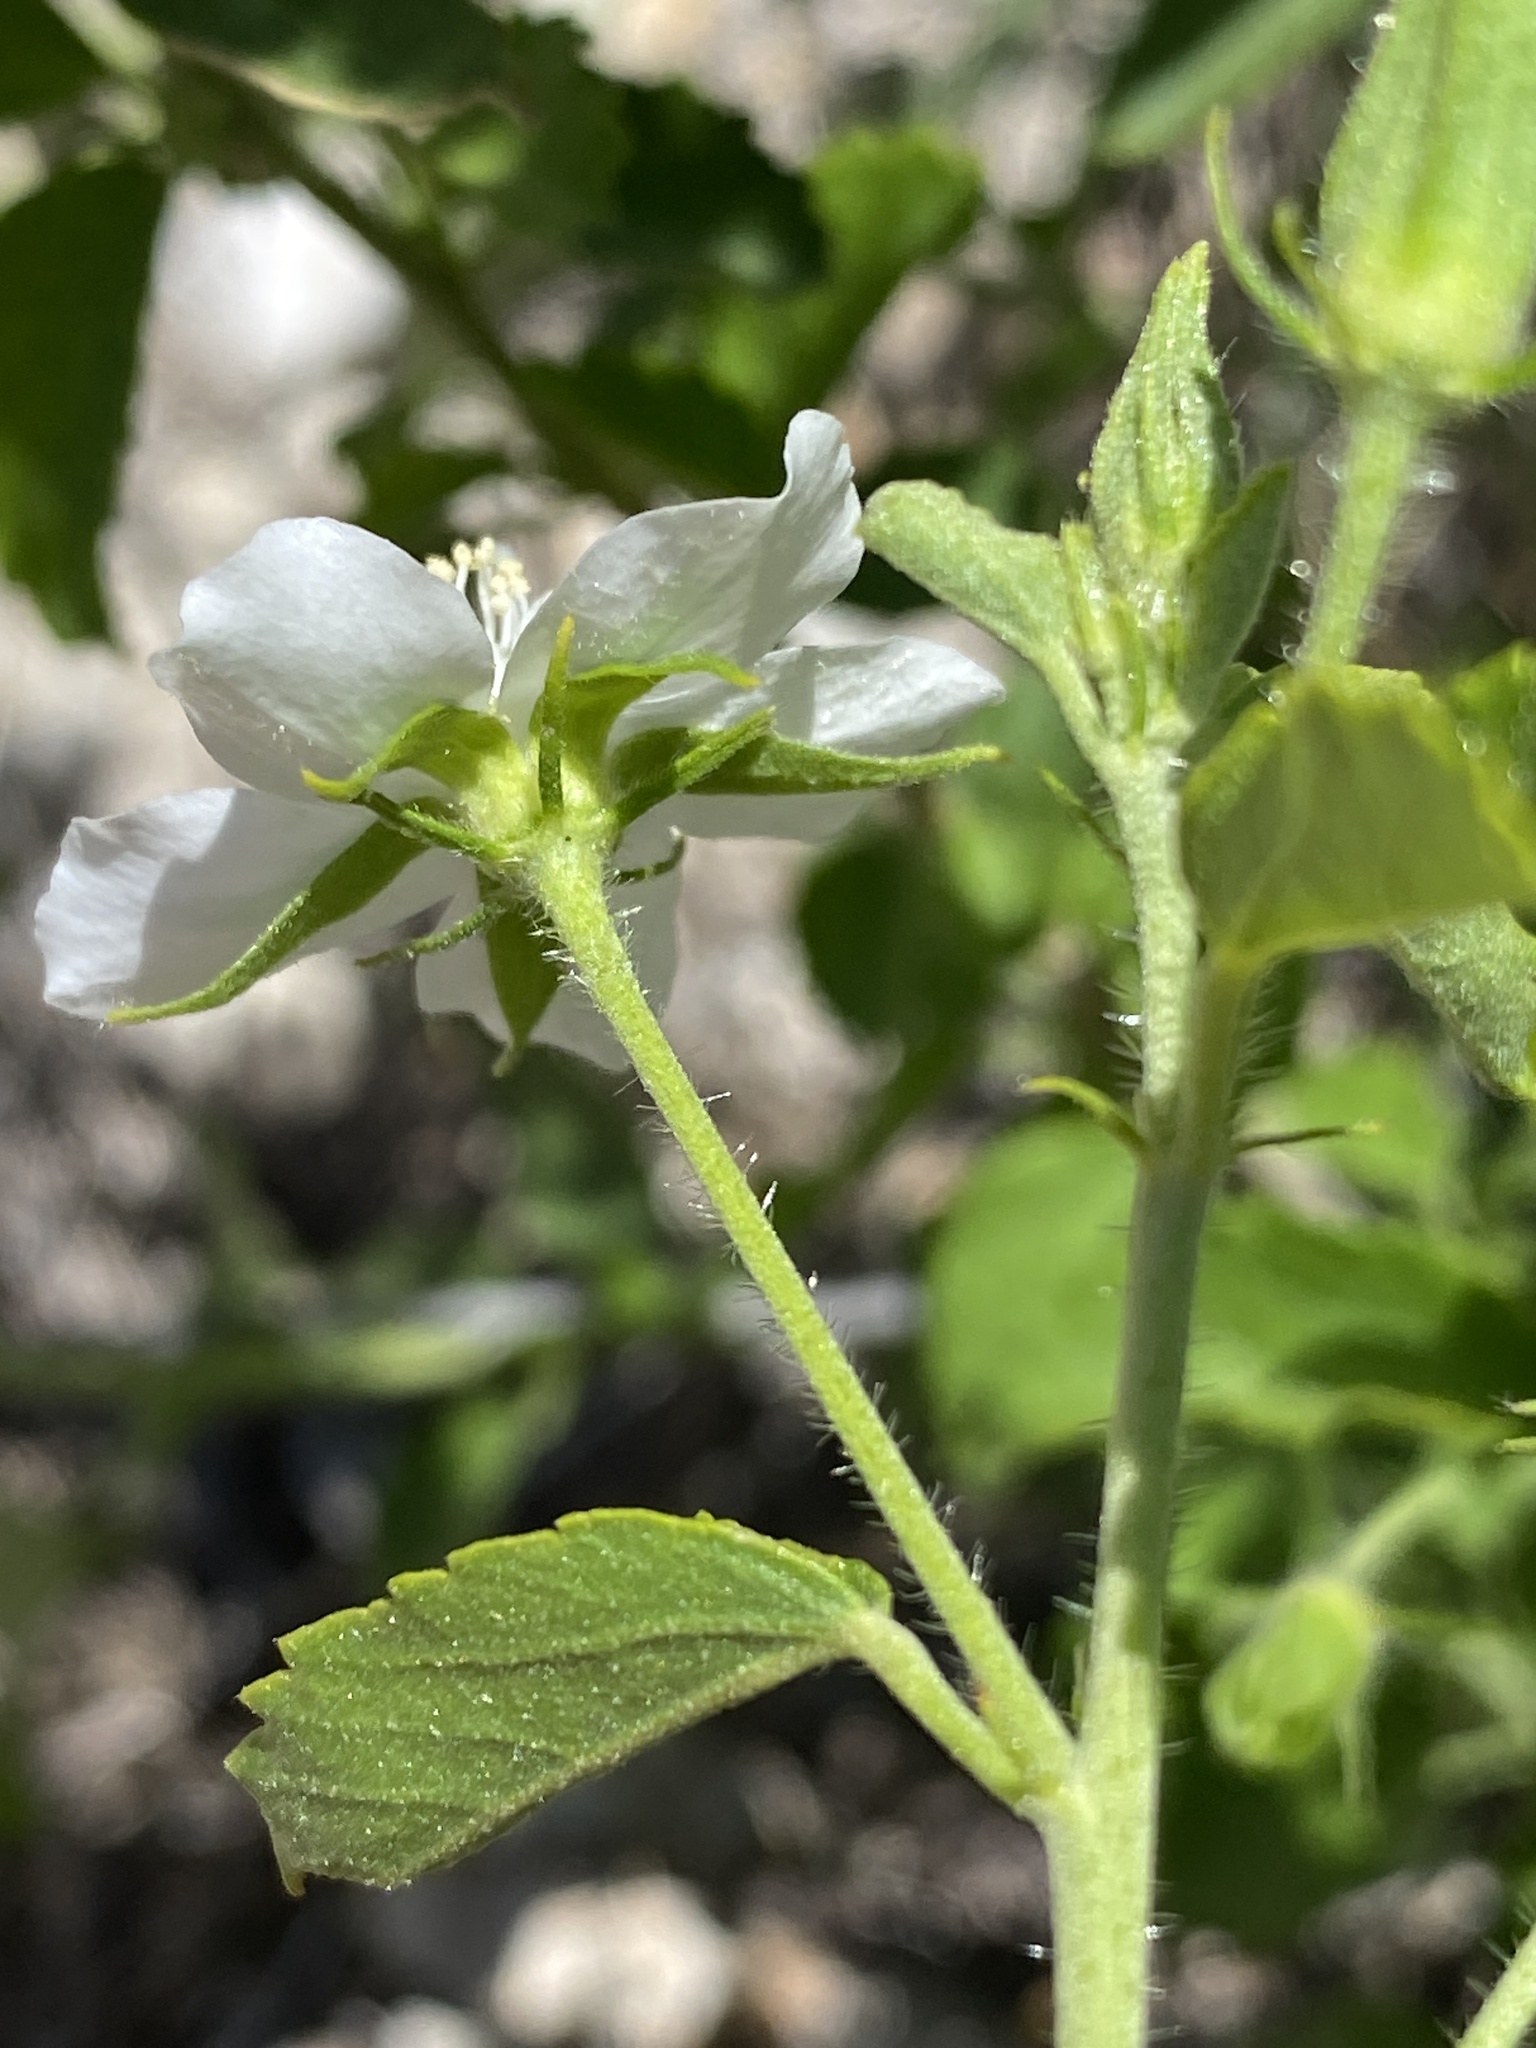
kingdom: Plantae
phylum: Tracheophyta
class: Magnoliopsida
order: Malvales
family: Malvaceae
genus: Hibiscus
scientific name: Hibiscus micranthus
